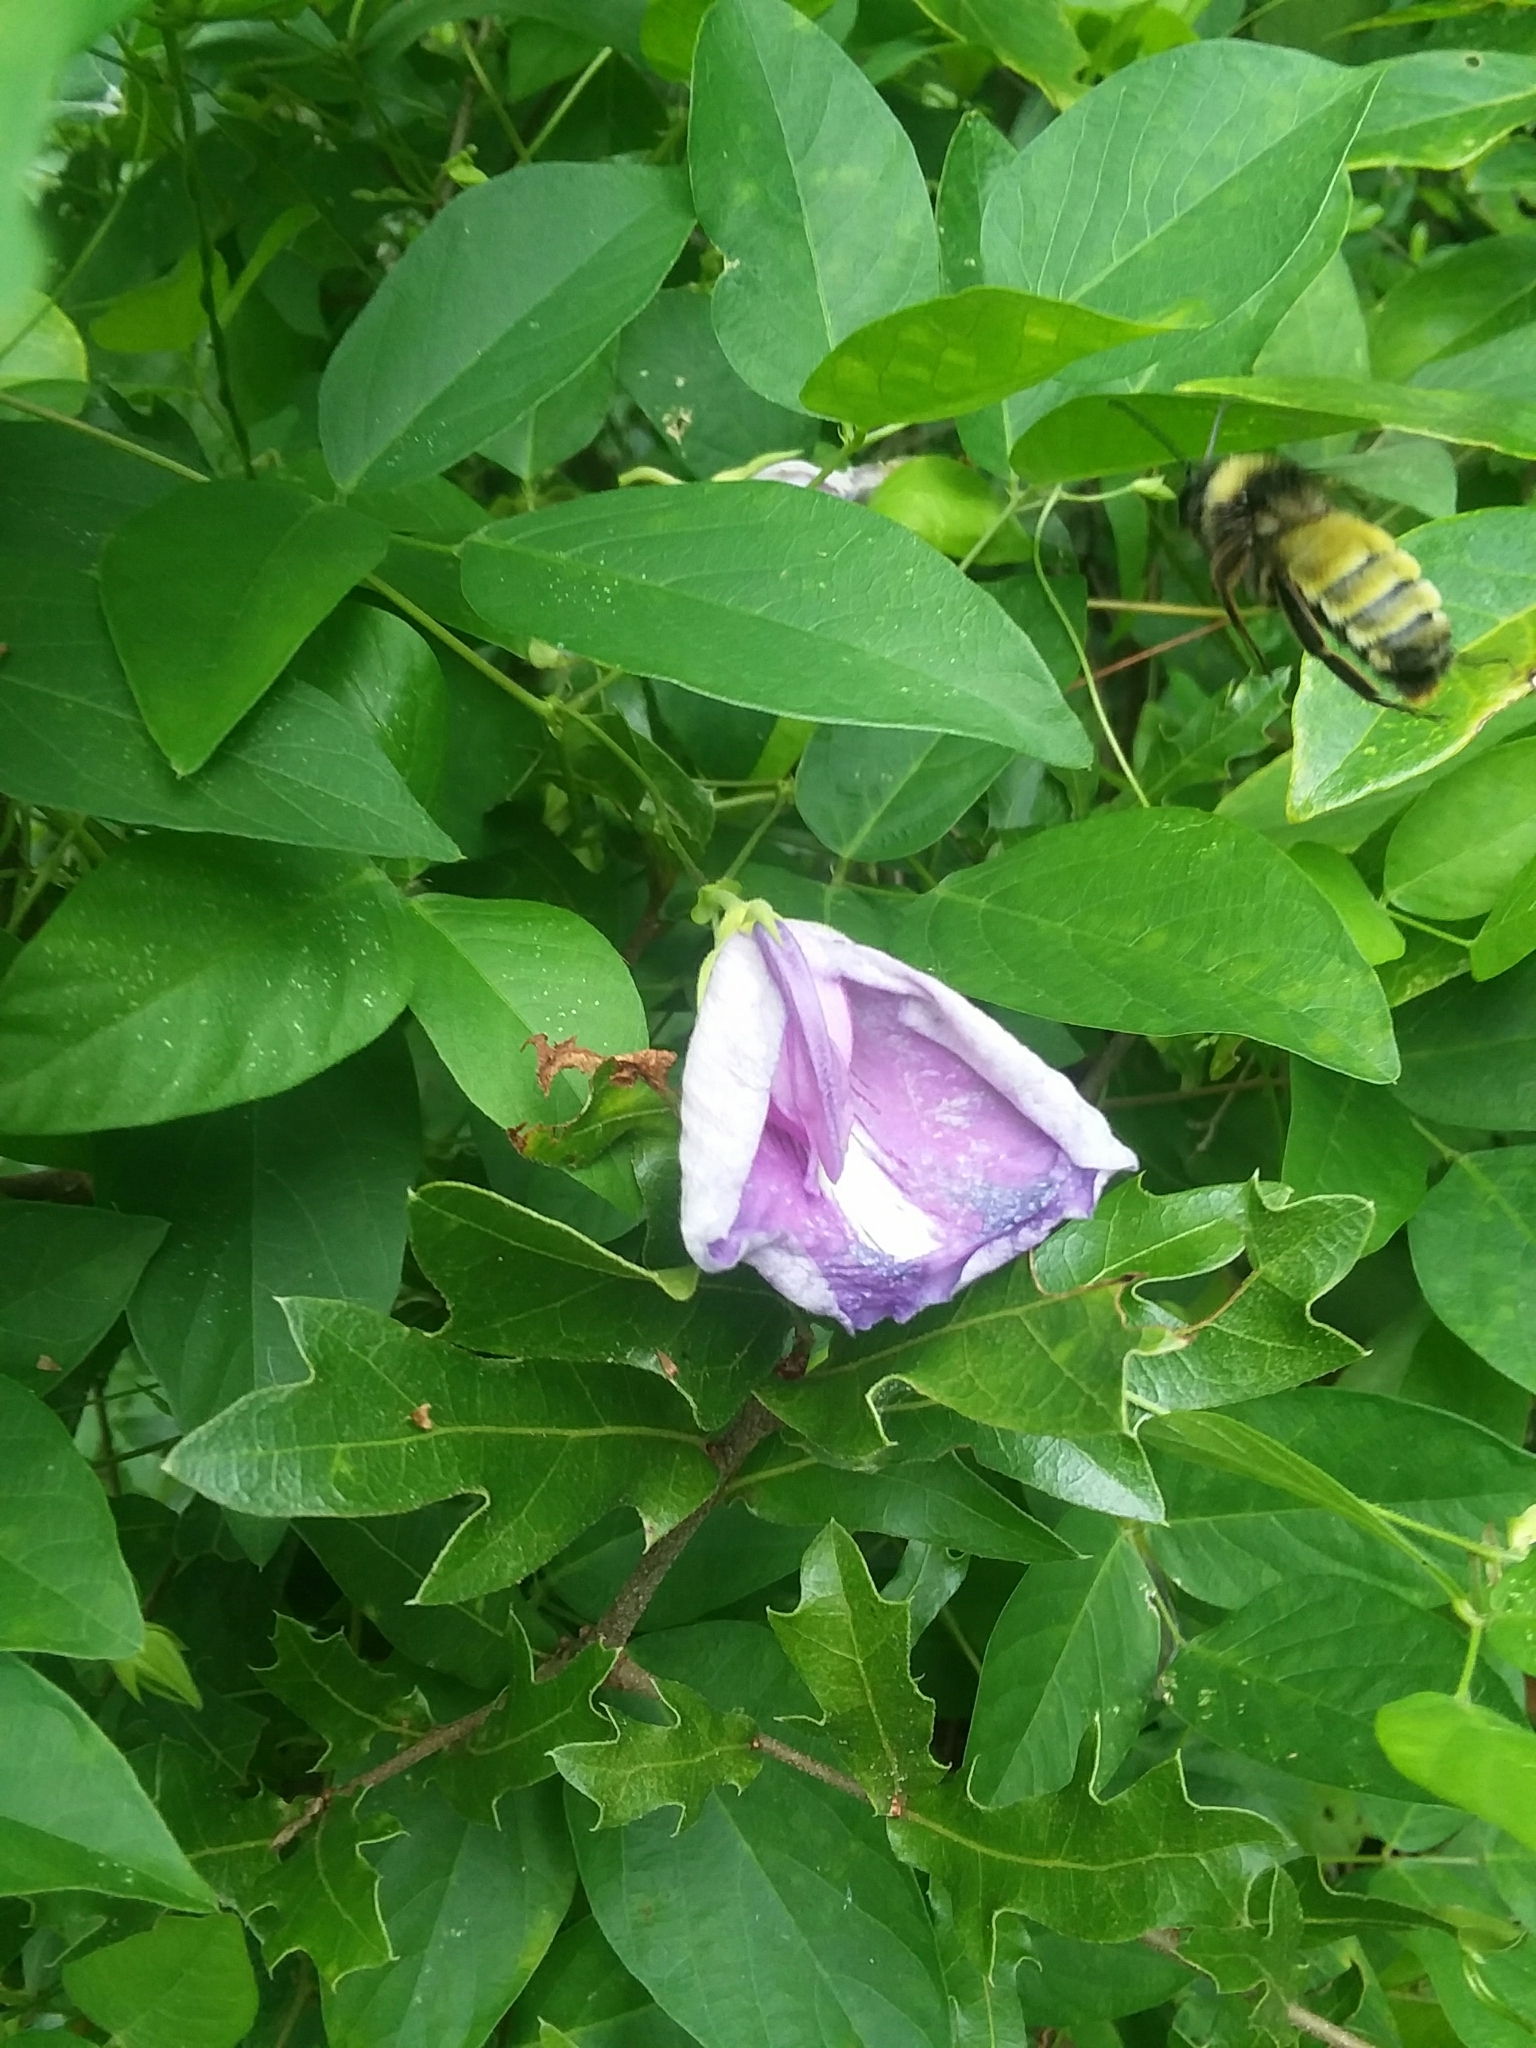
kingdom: Animalia
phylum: Arthropoda
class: Insecta
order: Hymenoptera
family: Apidae
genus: Bombus
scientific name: Bombus pensylvanicus
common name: Bumble bee
